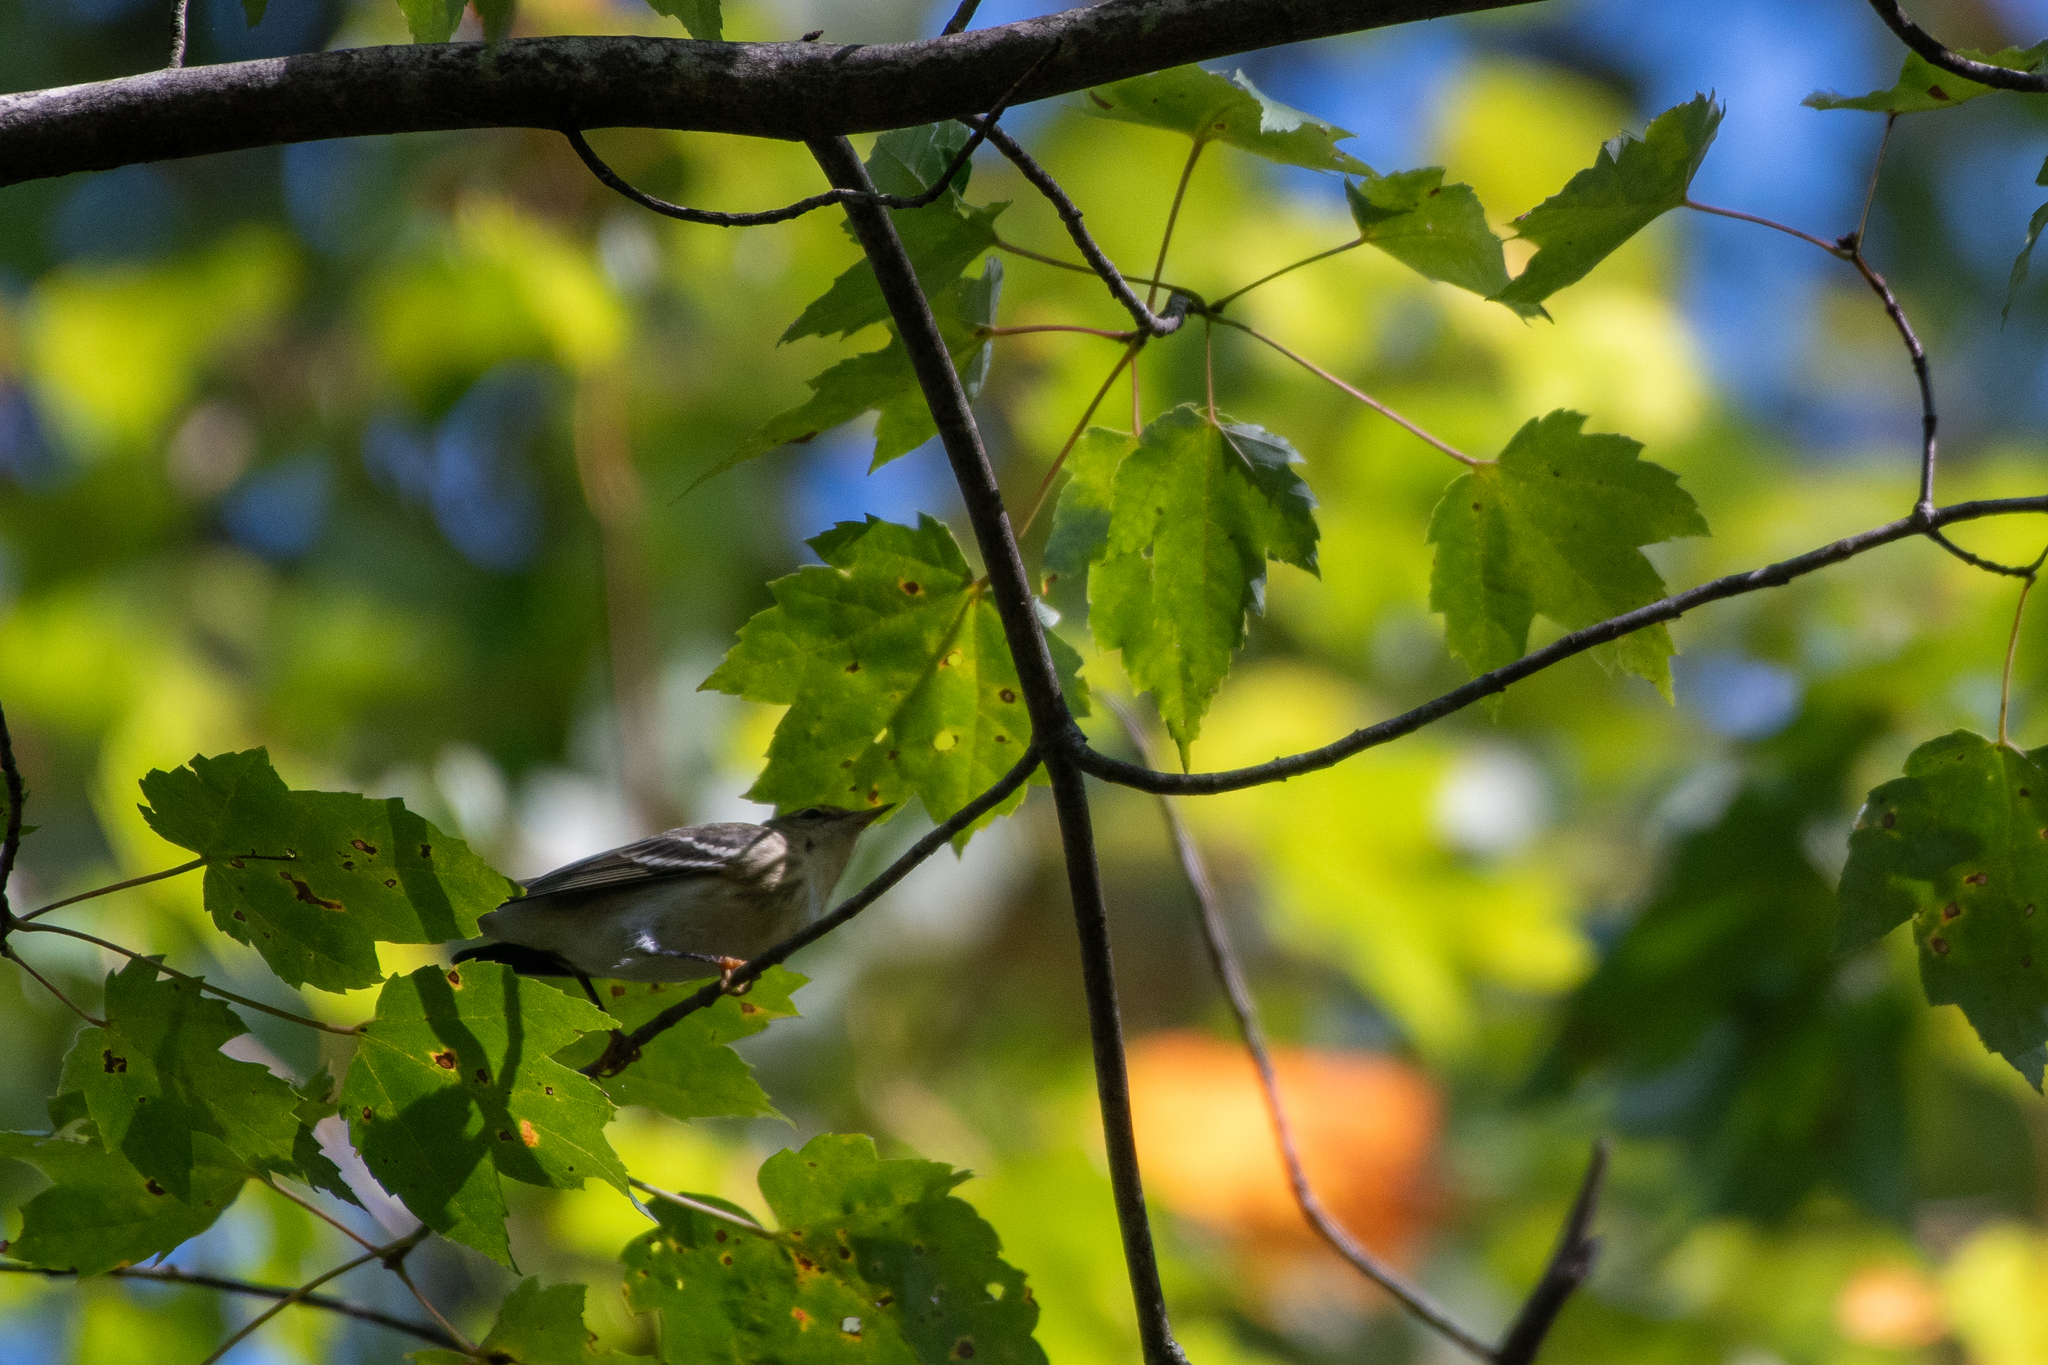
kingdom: Animalia
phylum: Chordata
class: Aves
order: Passeriformes
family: Parulidae
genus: Setophaga
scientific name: Setophaga striata
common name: Blackpoll warbler
